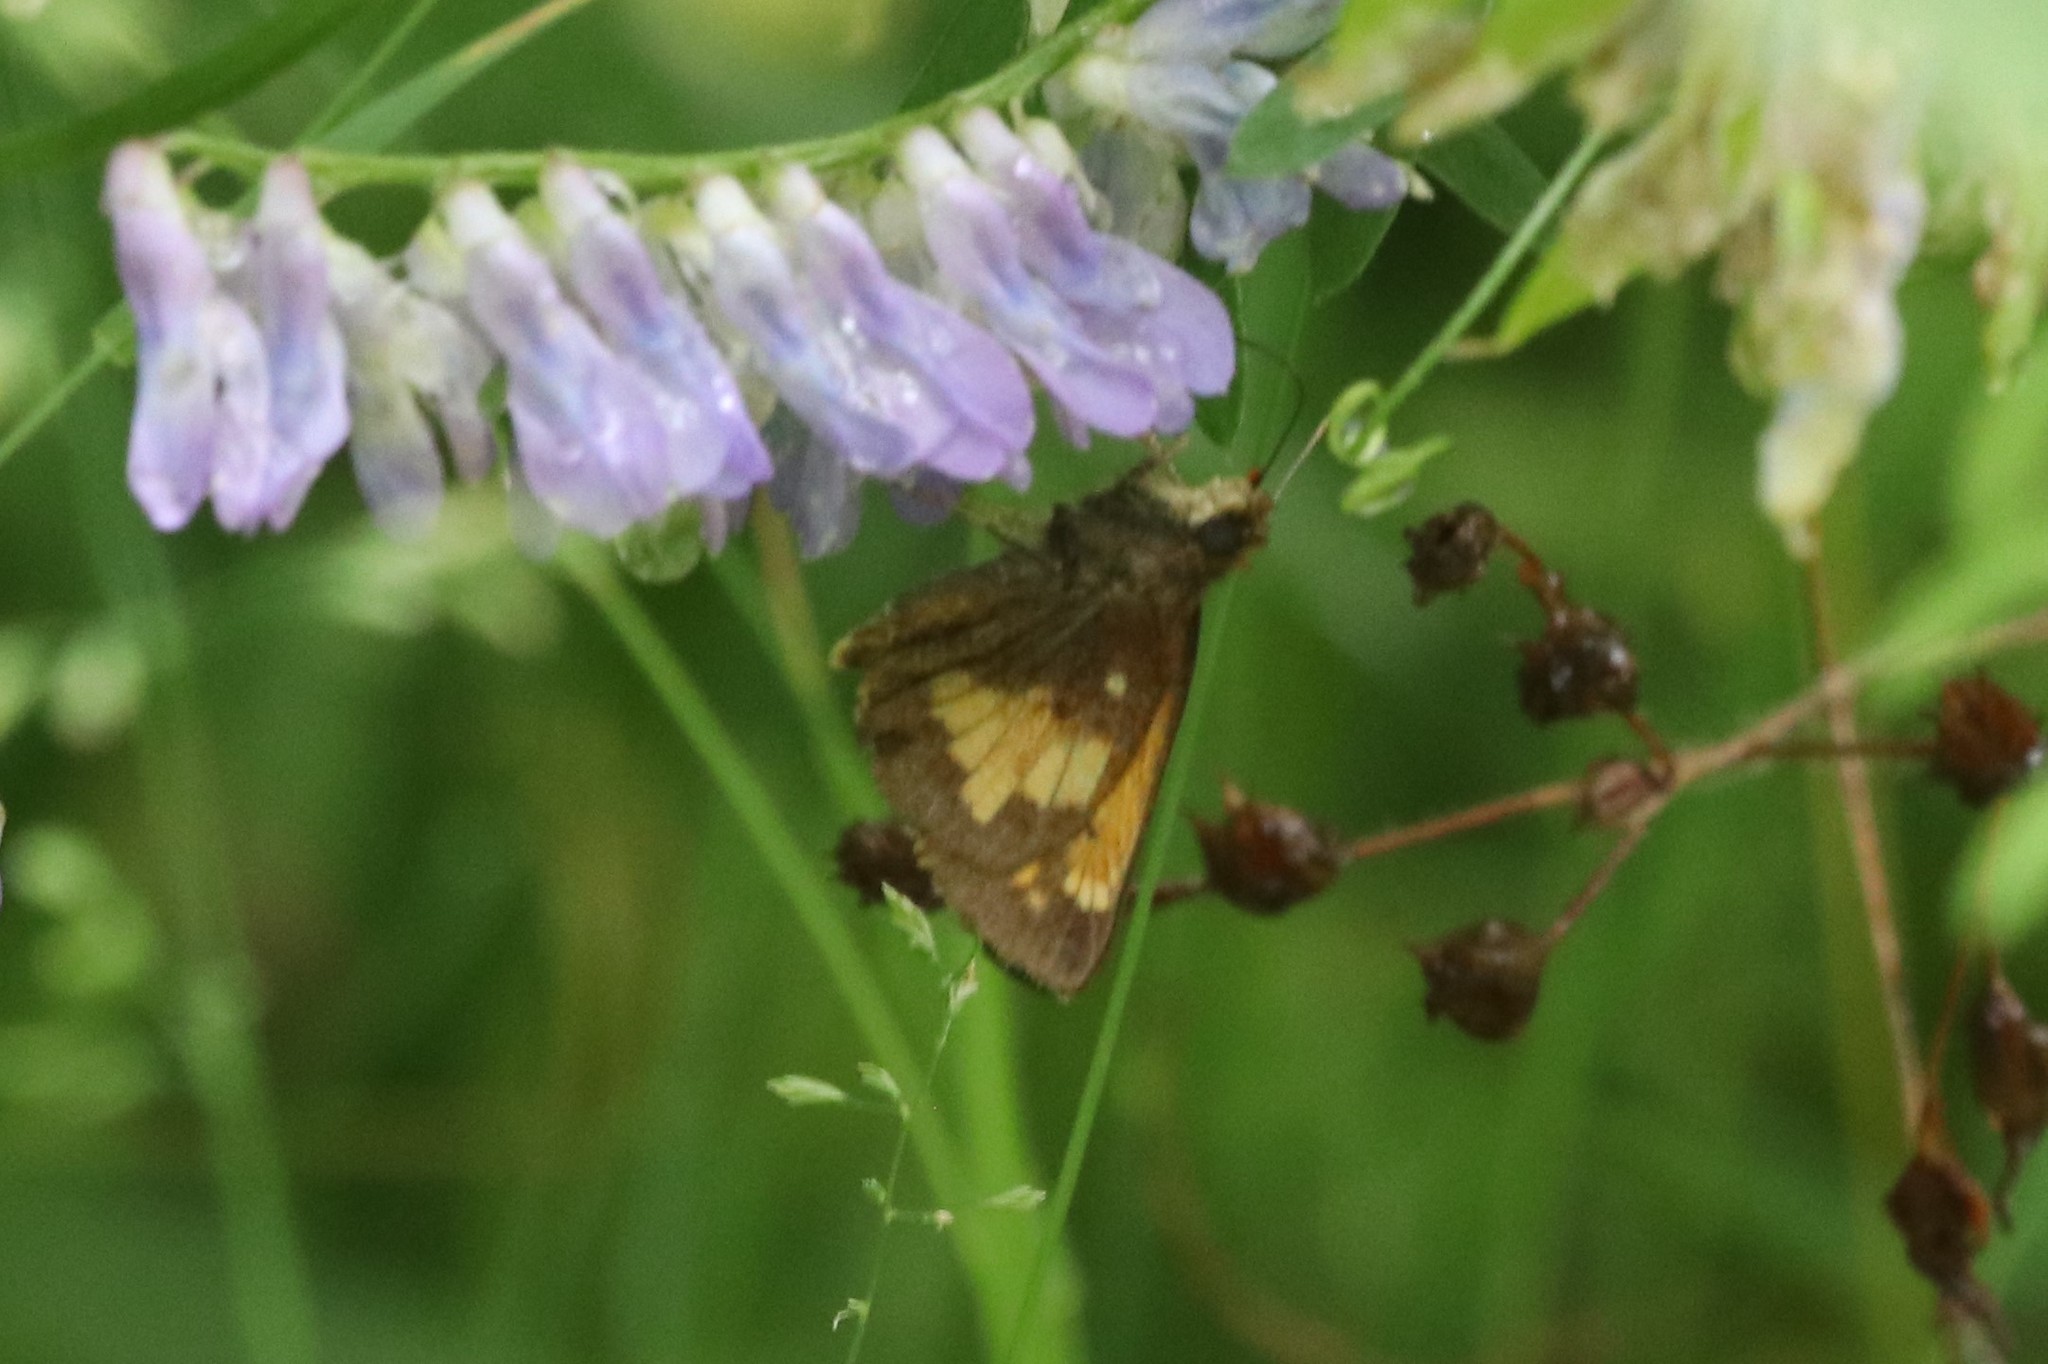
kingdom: Animalia
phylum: Arthropoda
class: Insecta
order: Lepidoptera
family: Hesperiidae
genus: Lon
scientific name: Lon hobomok
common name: Hobomok skipper
